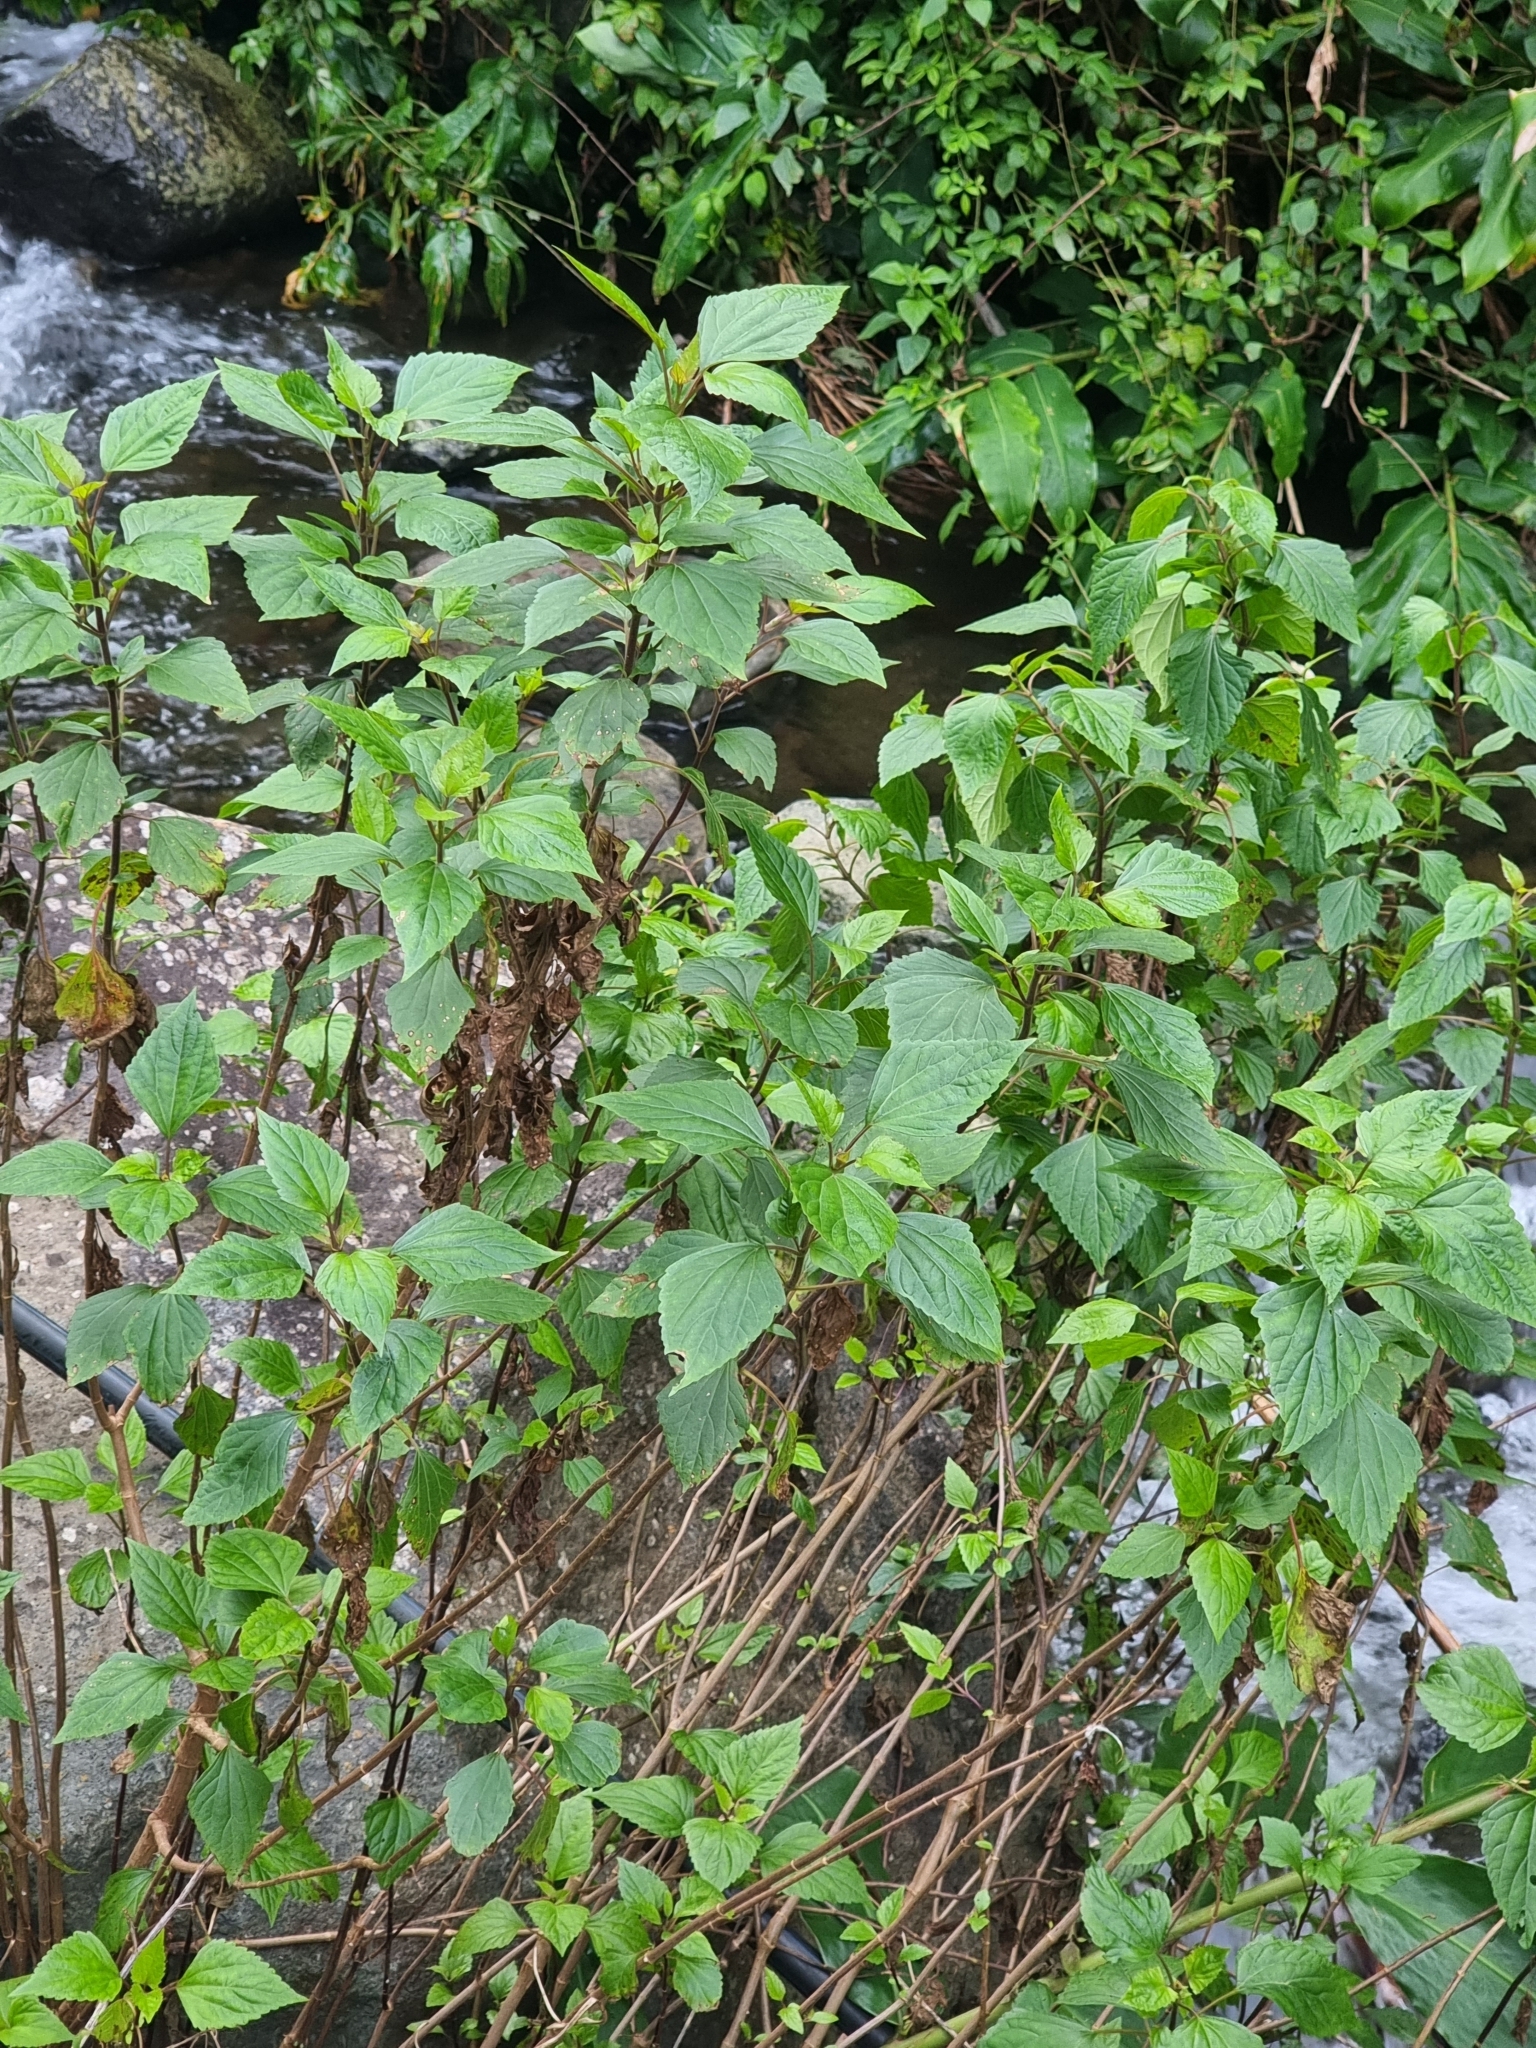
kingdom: Plantae
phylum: Tracheophyta
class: Magnoliopsida
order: Asterales
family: Asteraceae
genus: Ageratina
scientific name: Ageratina adenophora
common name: Sticky snakeroot
